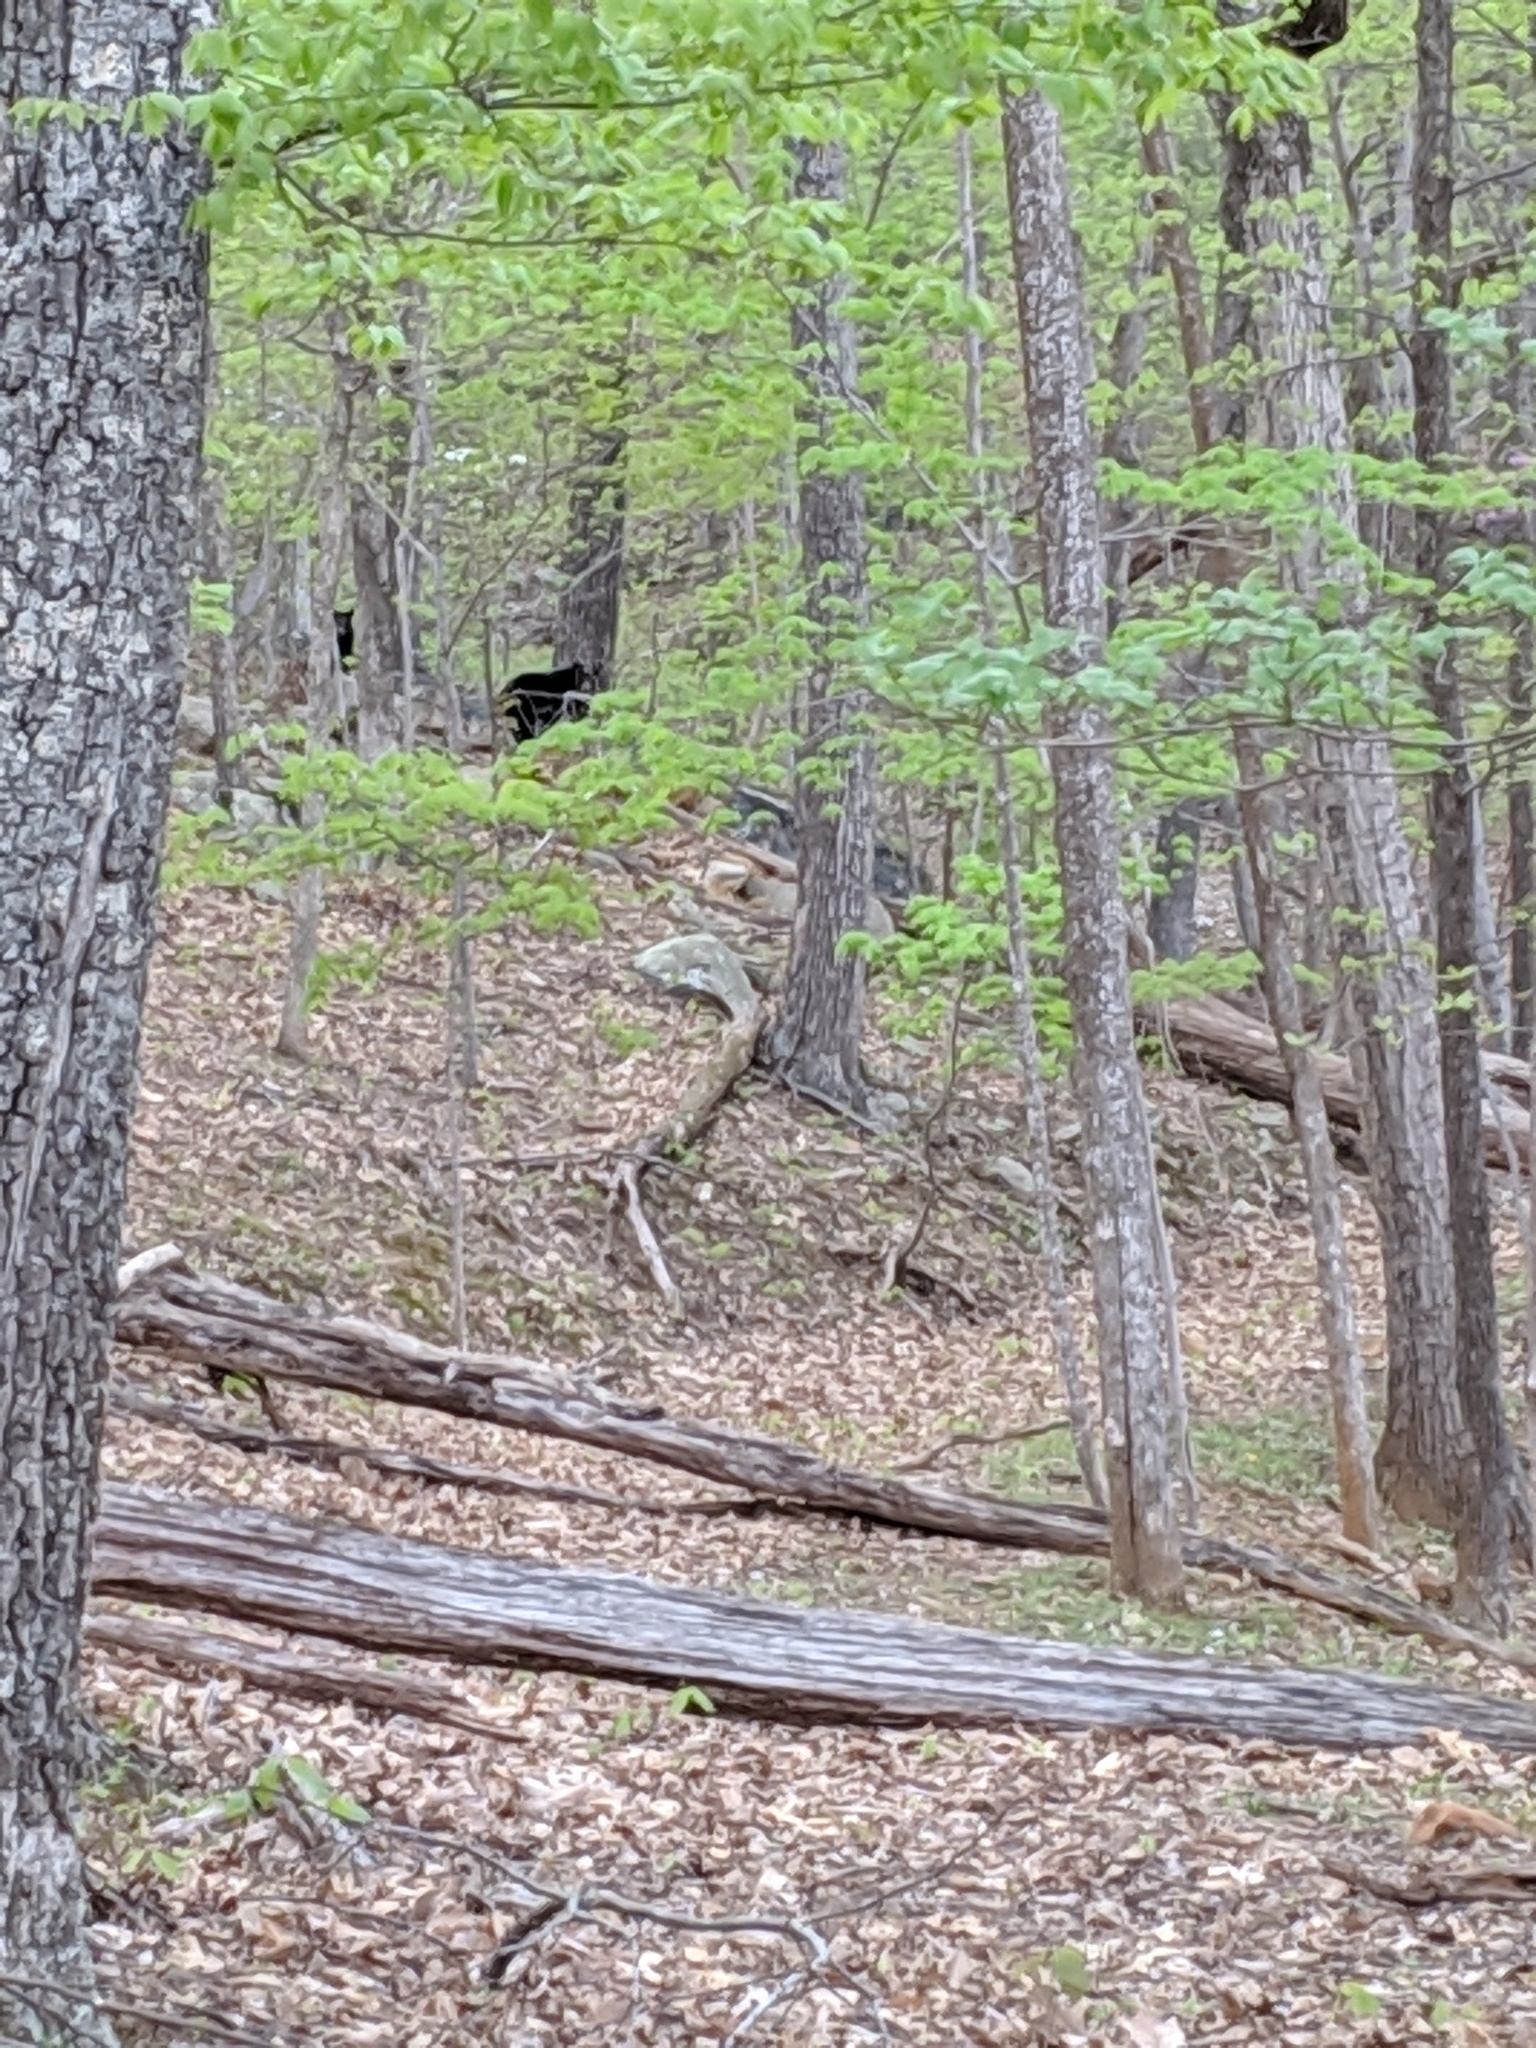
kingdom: Animalia
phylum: Chordata
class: Mammalia
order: Carnivora
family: Ursidae
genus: Ursus
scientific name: Ursus americanus
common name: American black bear
